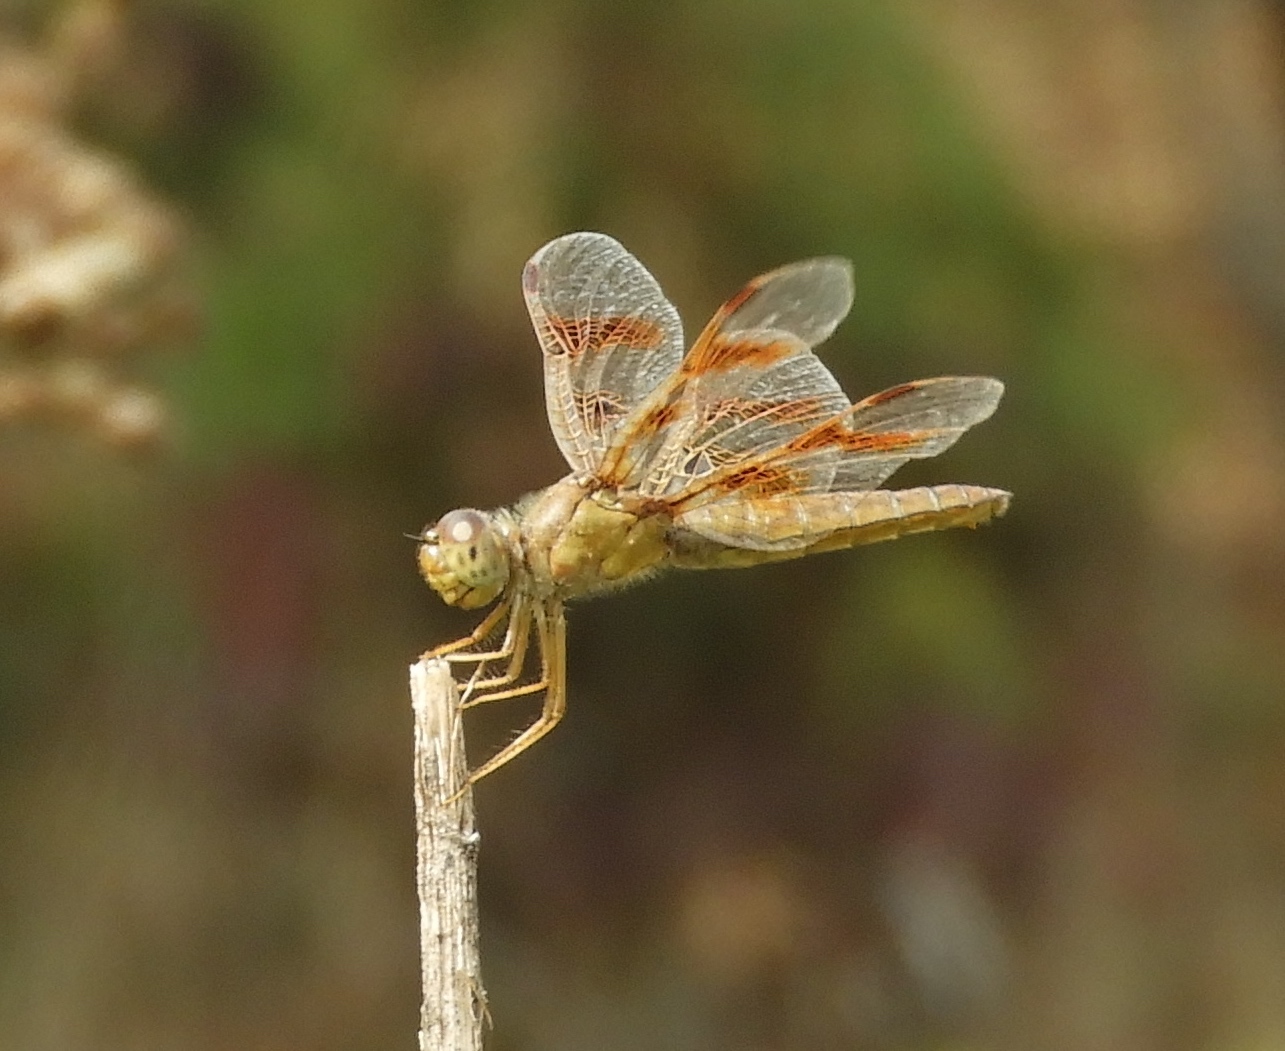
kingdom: Animalia
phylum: Arthropoda
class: Insecta
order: Odonata
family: Libellulidae
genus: Perithemis
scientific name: Perithemis intensa
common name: Mexican amberwing
